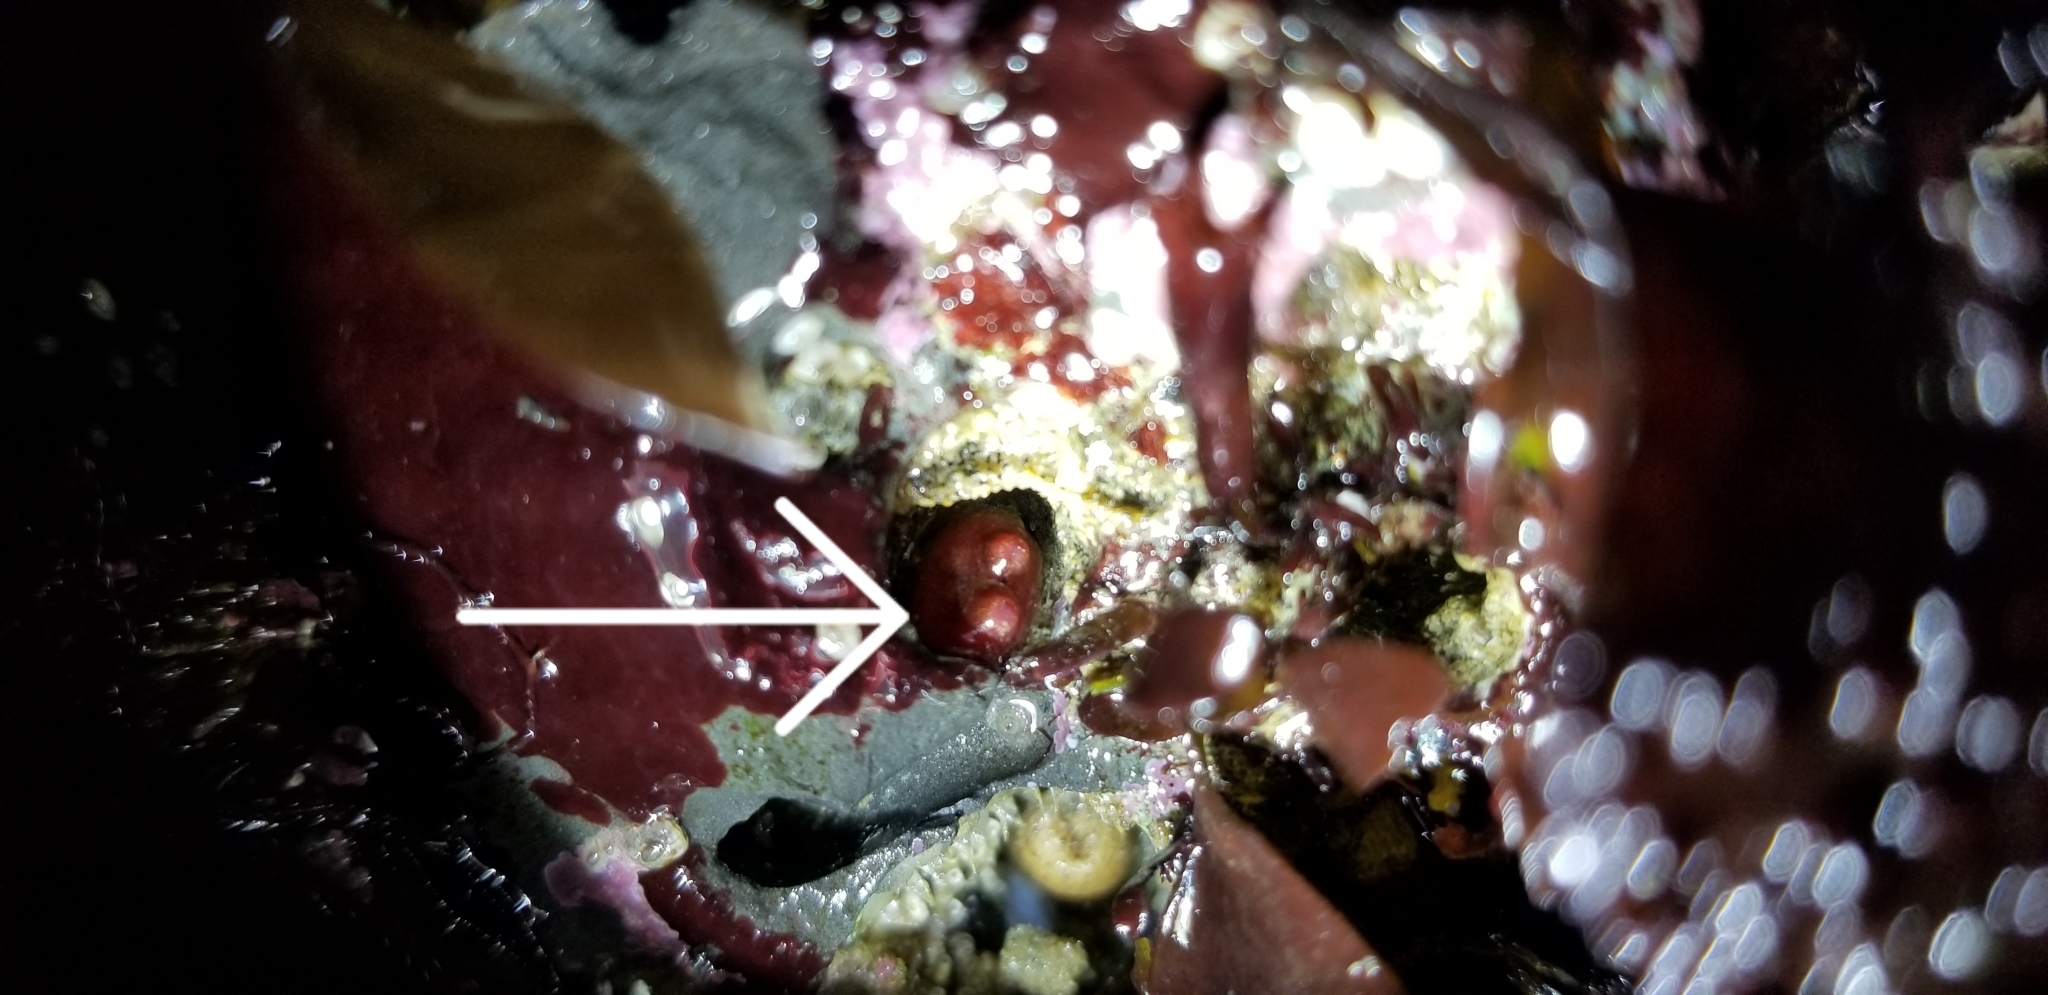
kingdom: Animalia
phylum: Mollusca
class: Bivalvia
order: Adapedonta
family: Hiatellidae
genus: Hiatella
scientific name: Hiatella arctica
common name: Arctic hiatella
